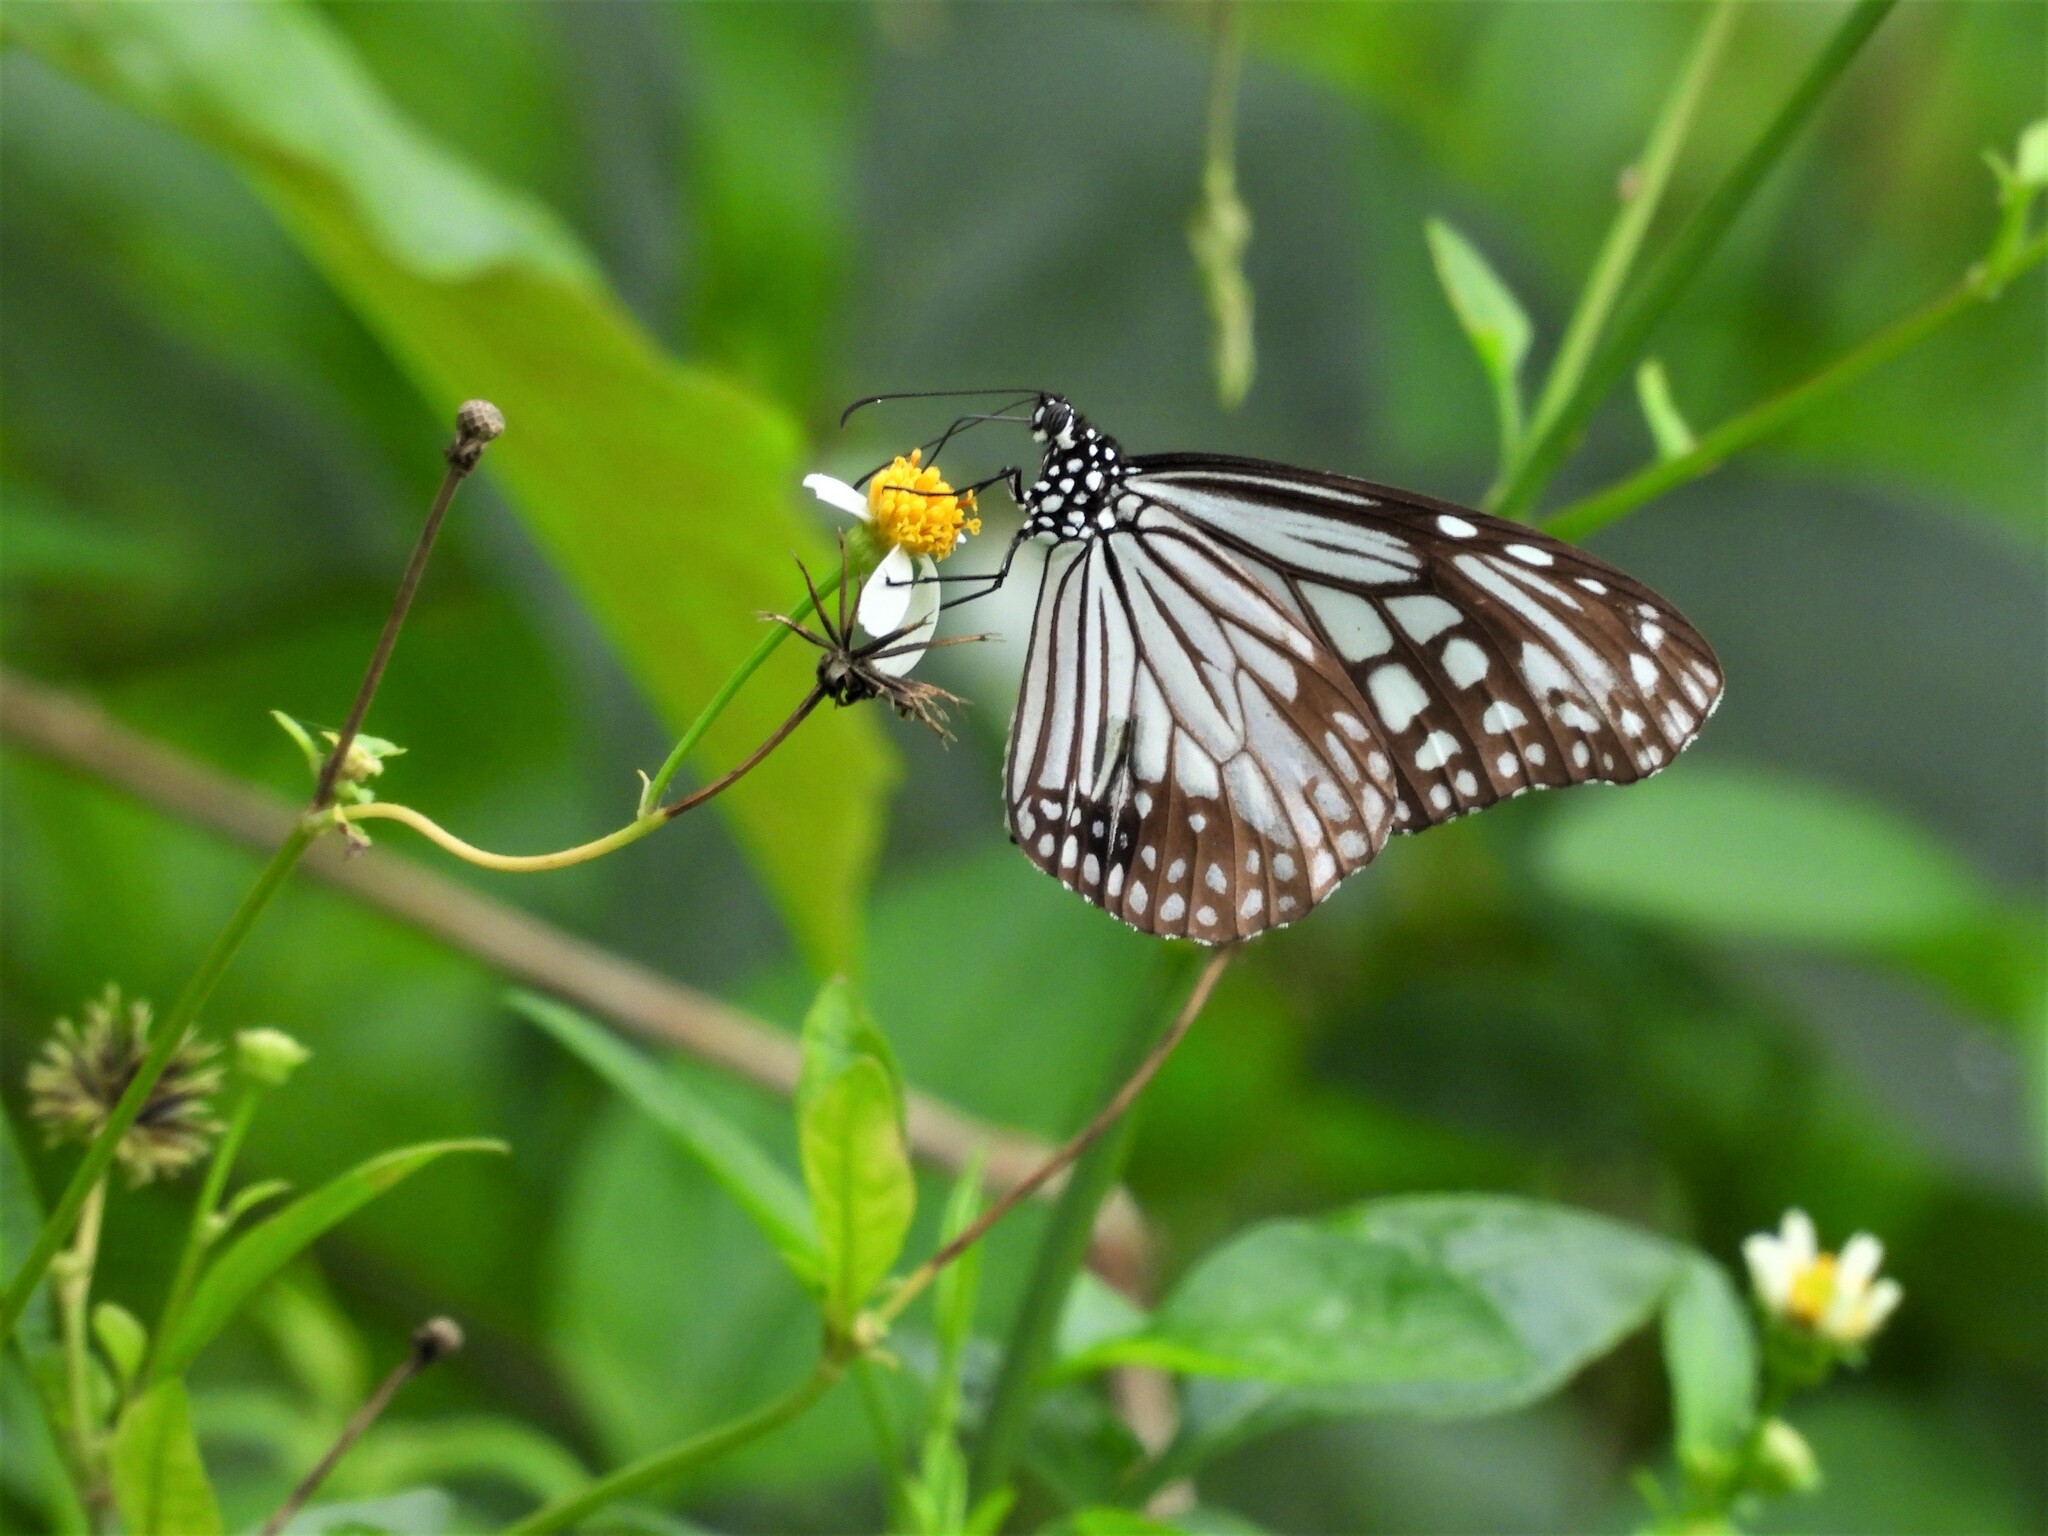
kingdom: Animalia
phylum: Arthropoda
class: Insecta
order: Lepidoptera
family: Nymphalidae
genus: Parantica
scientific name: Parantica aglea
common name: Glassy tiger
